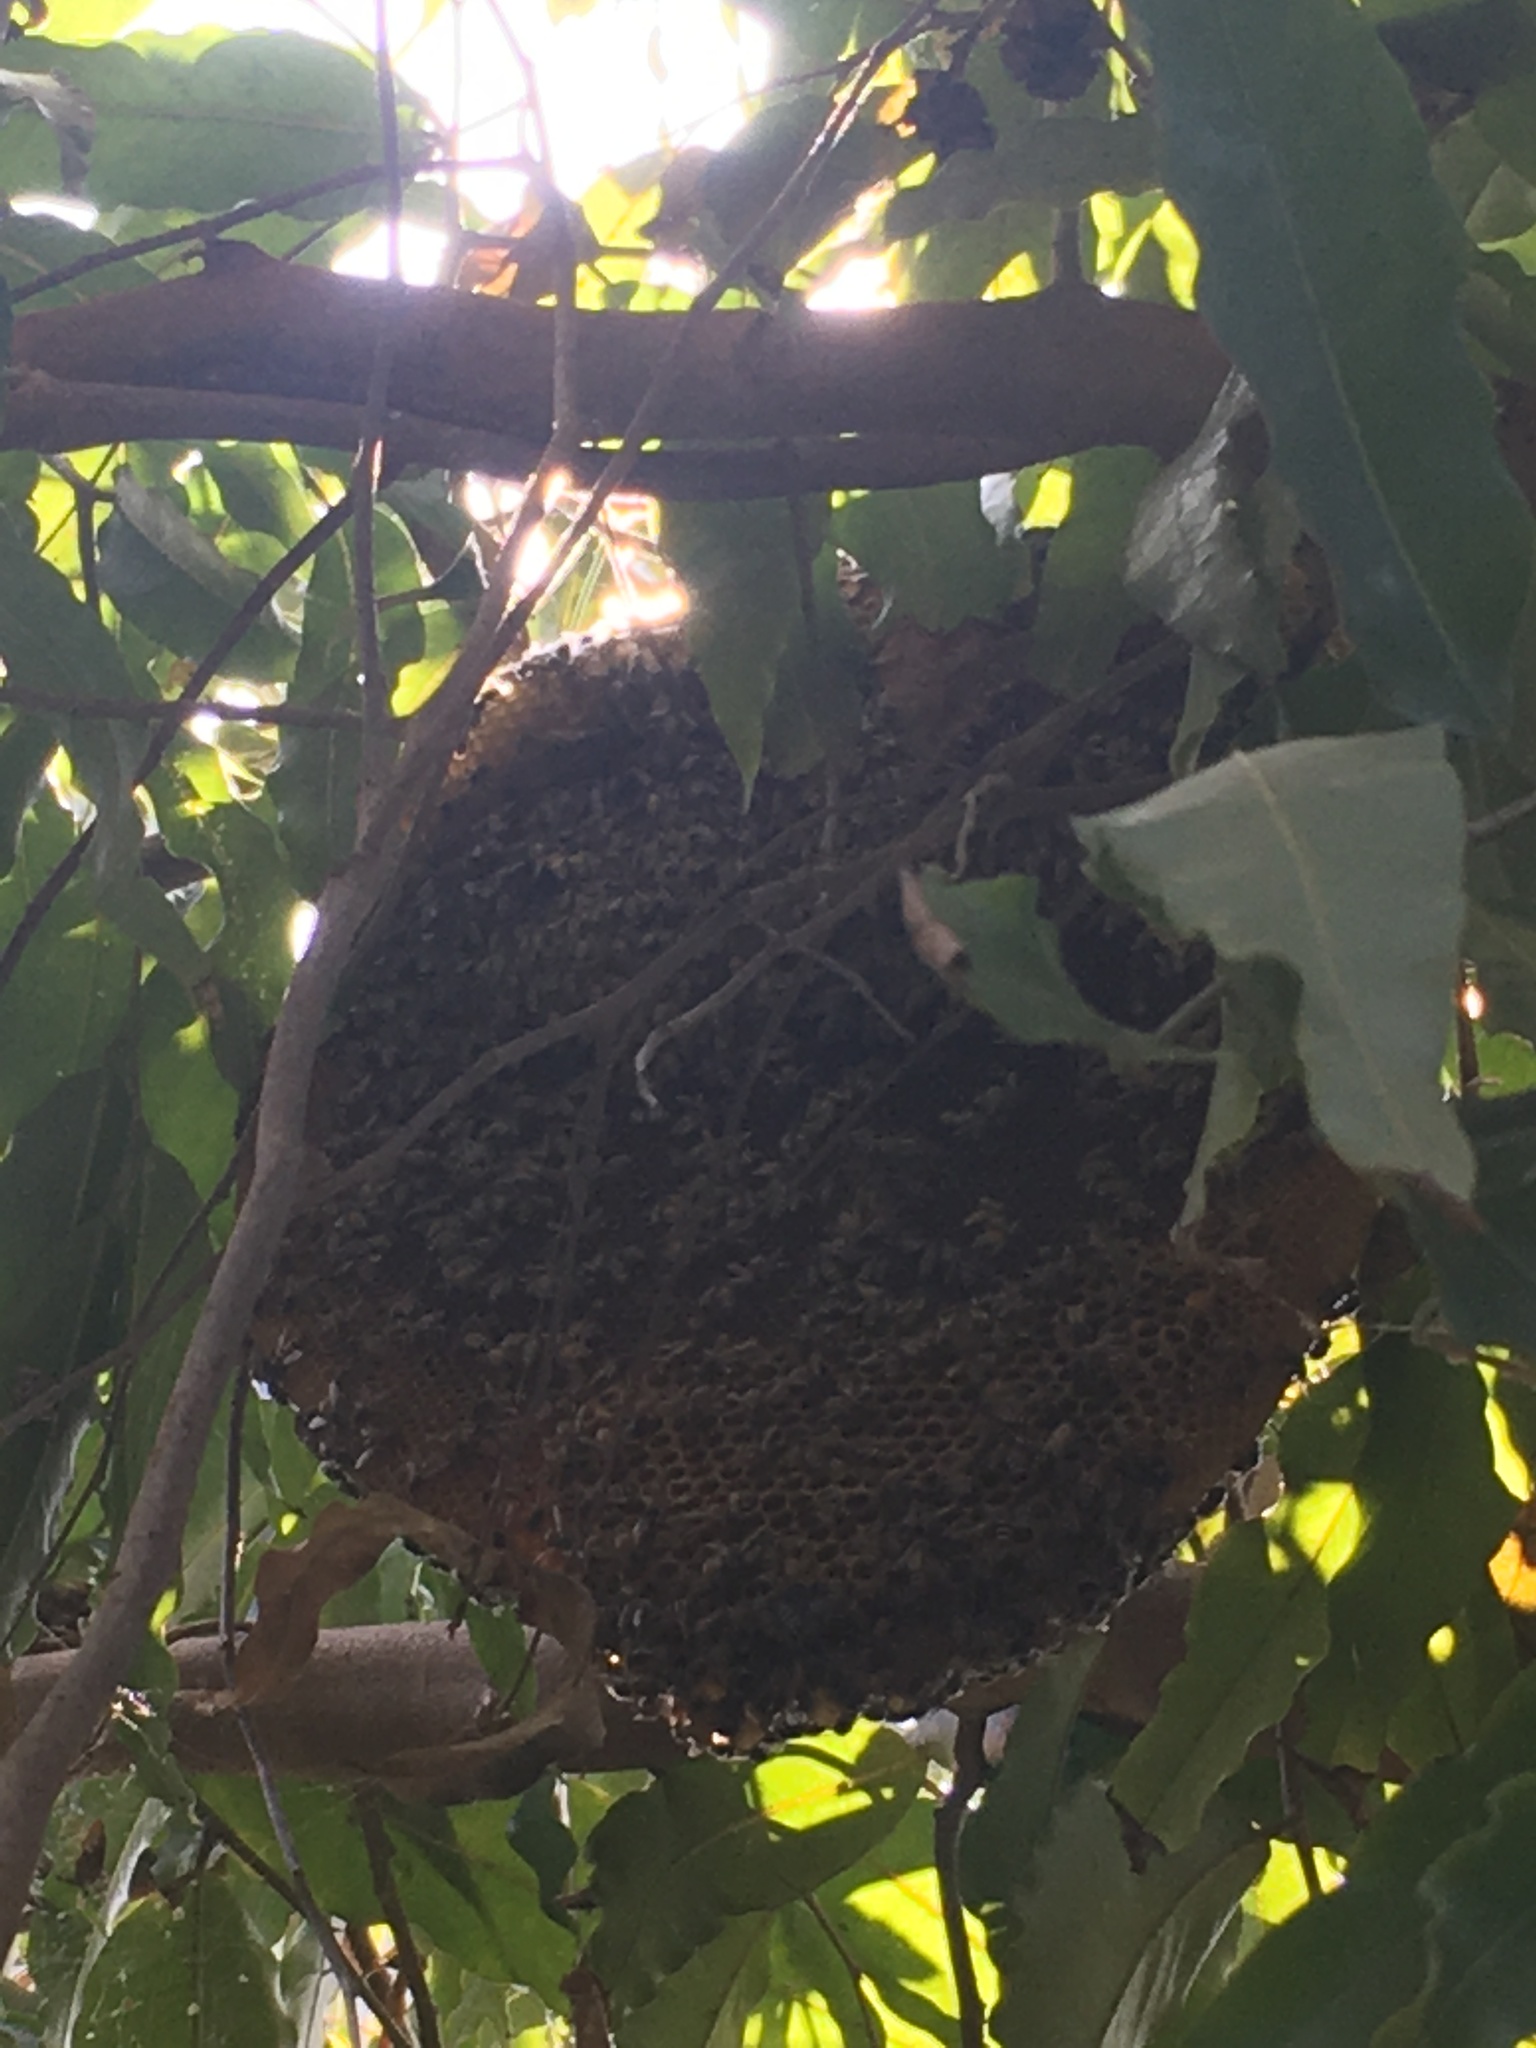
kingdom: Animalia
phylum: Arthropoda
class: Insecta
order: Hymenoptera
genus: Micrapis
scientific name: Micrapis
